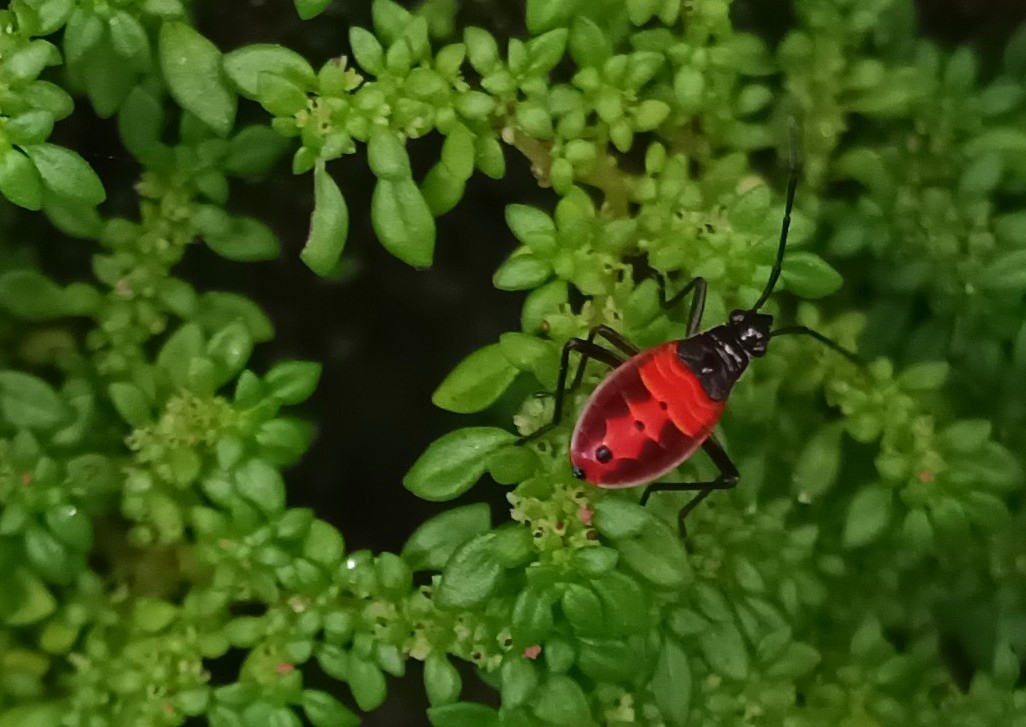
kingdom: Animalia
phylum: Arthropoda
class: Insecta
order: Hemiptera
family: Pyrrhocoridae
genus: Melamphaus
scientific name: Melamphaus
